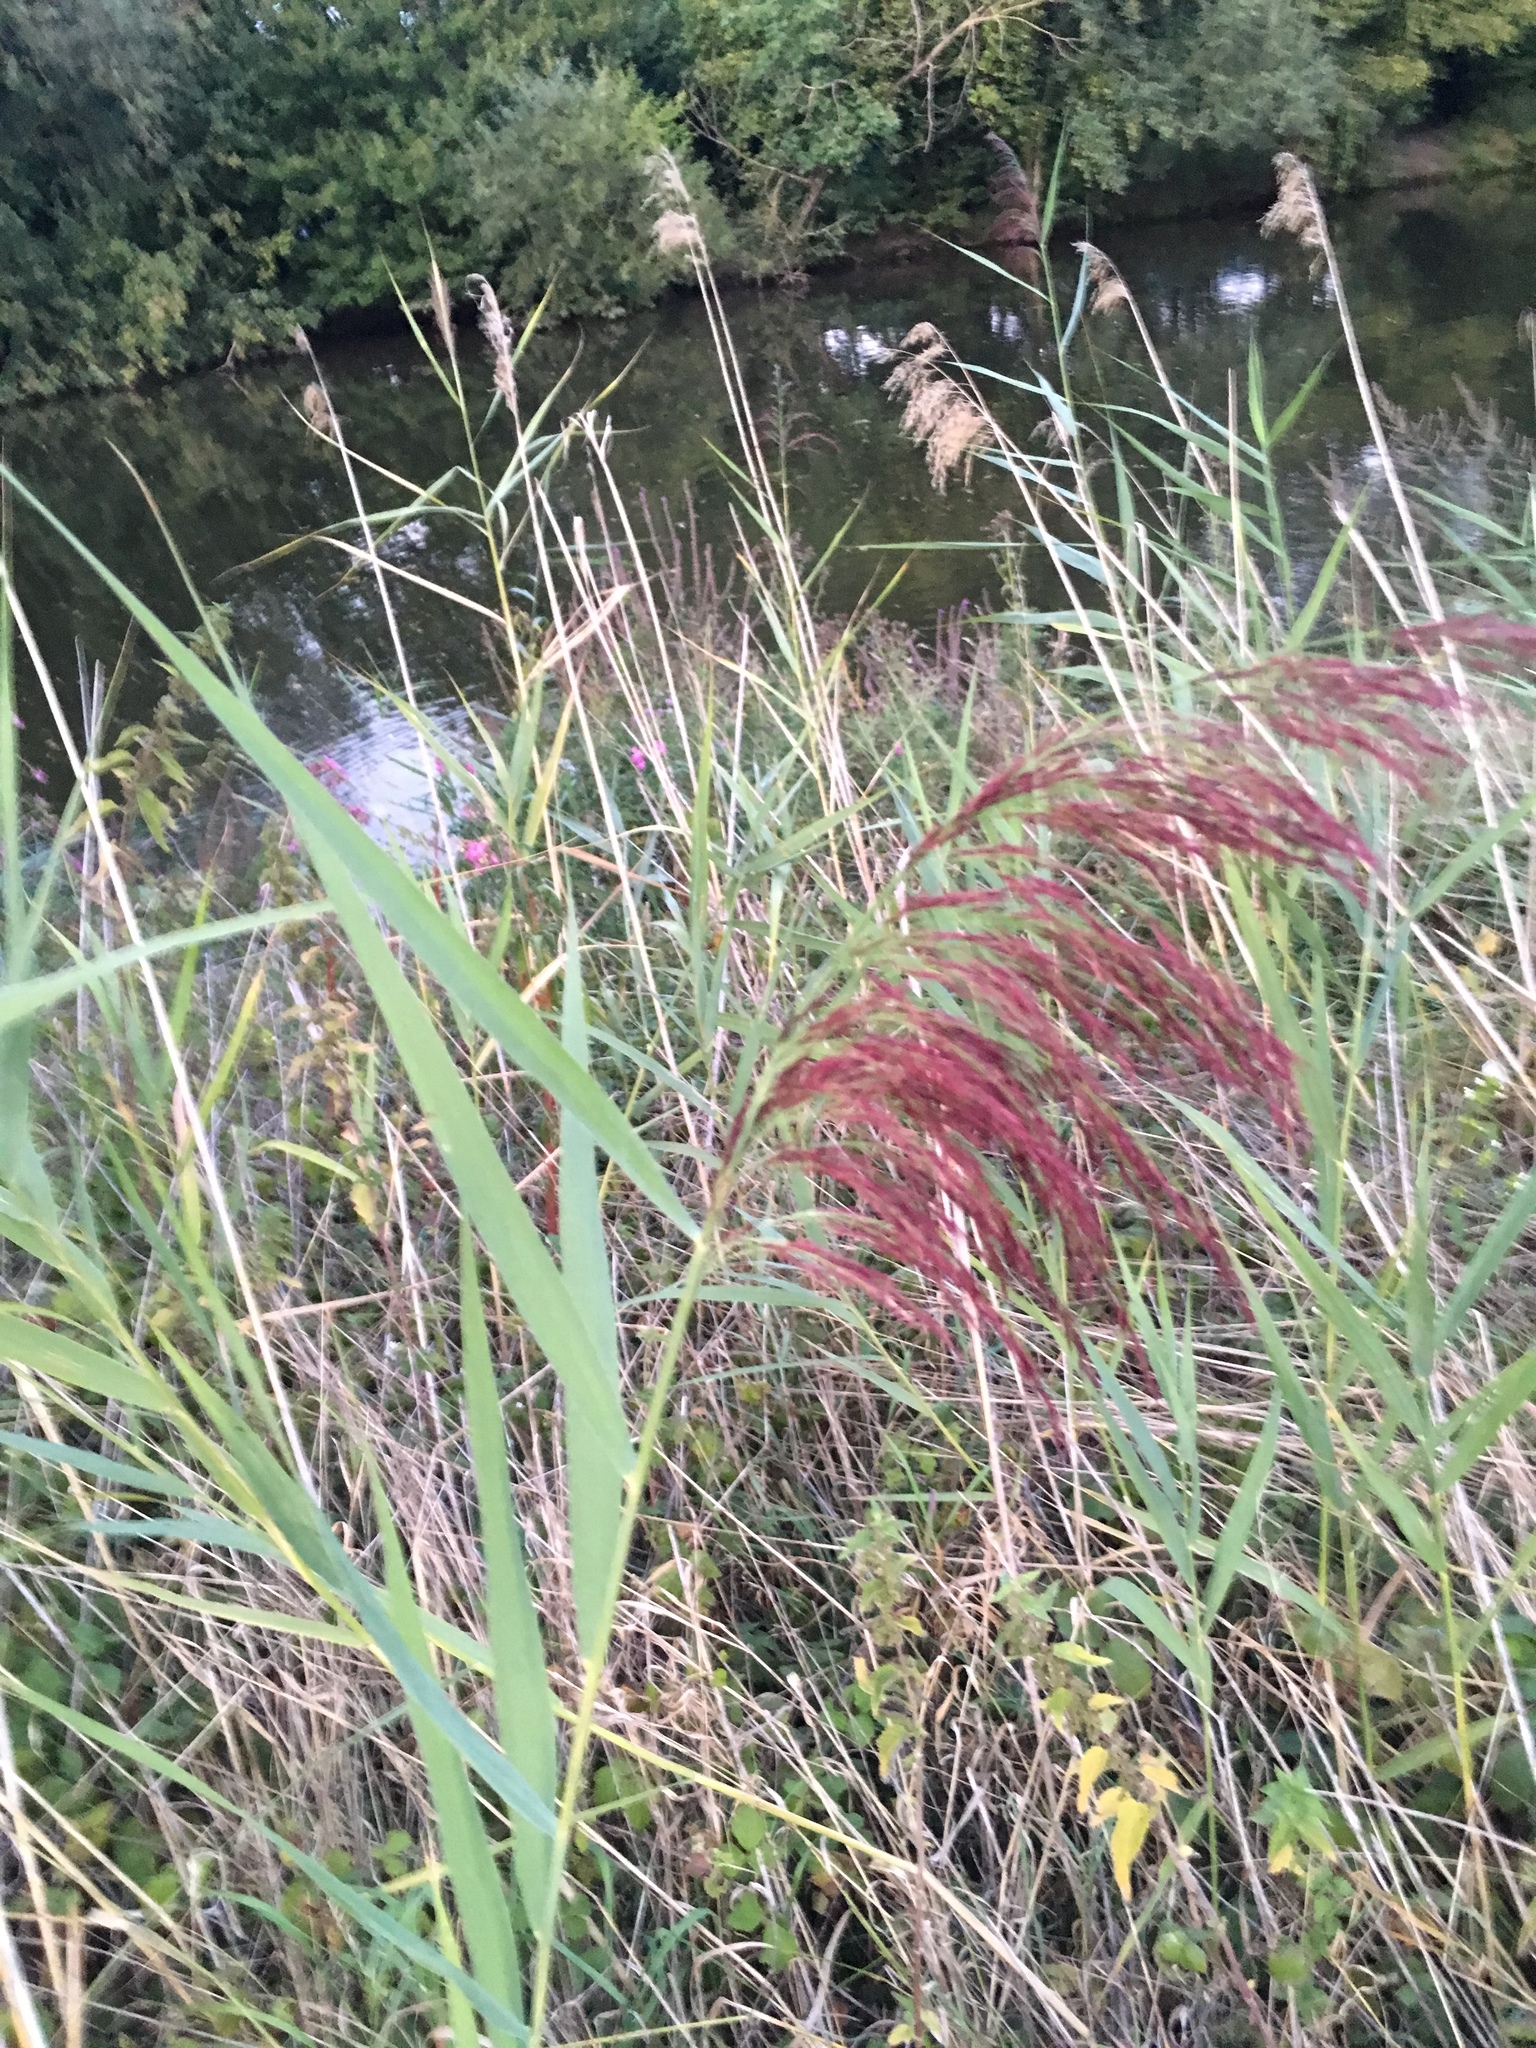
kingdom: Plantae
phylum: Tracheophyta
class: Liliopsida
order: Poales
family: Poaceae
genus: Phragmites
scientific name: Phragmites australis
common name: Common reed
